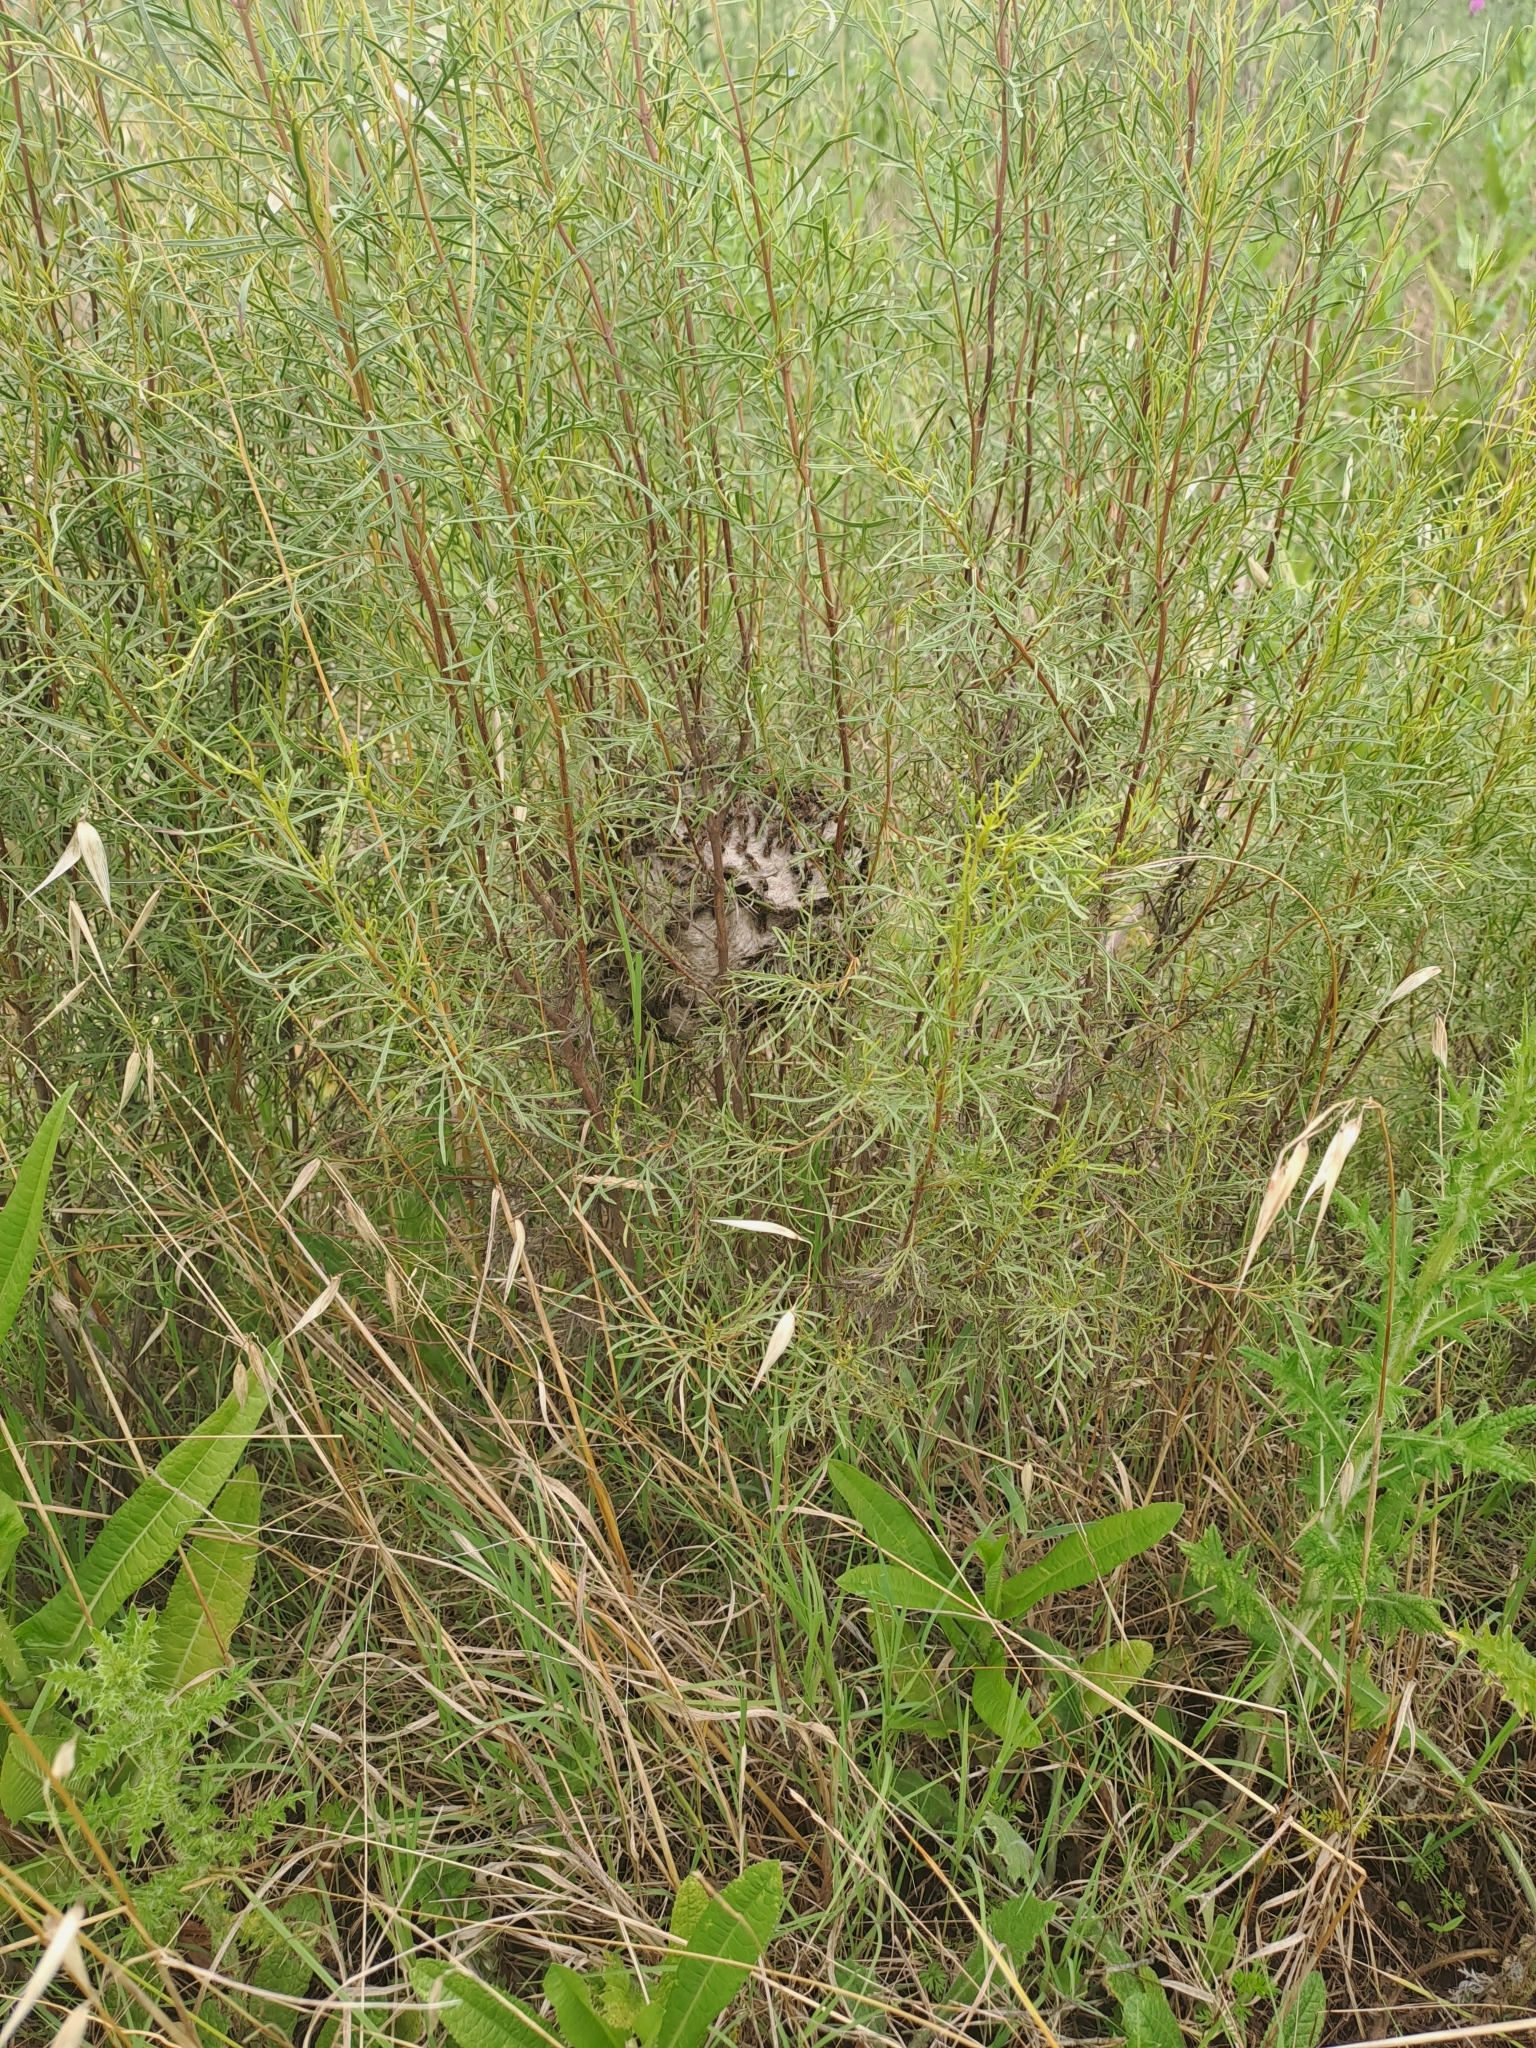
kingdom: Animalia
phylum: Arthropoda
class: Insecta
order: Hymenoptera
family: Vespidae
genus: Brachygastra
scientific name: Brachygastra lecheguana
